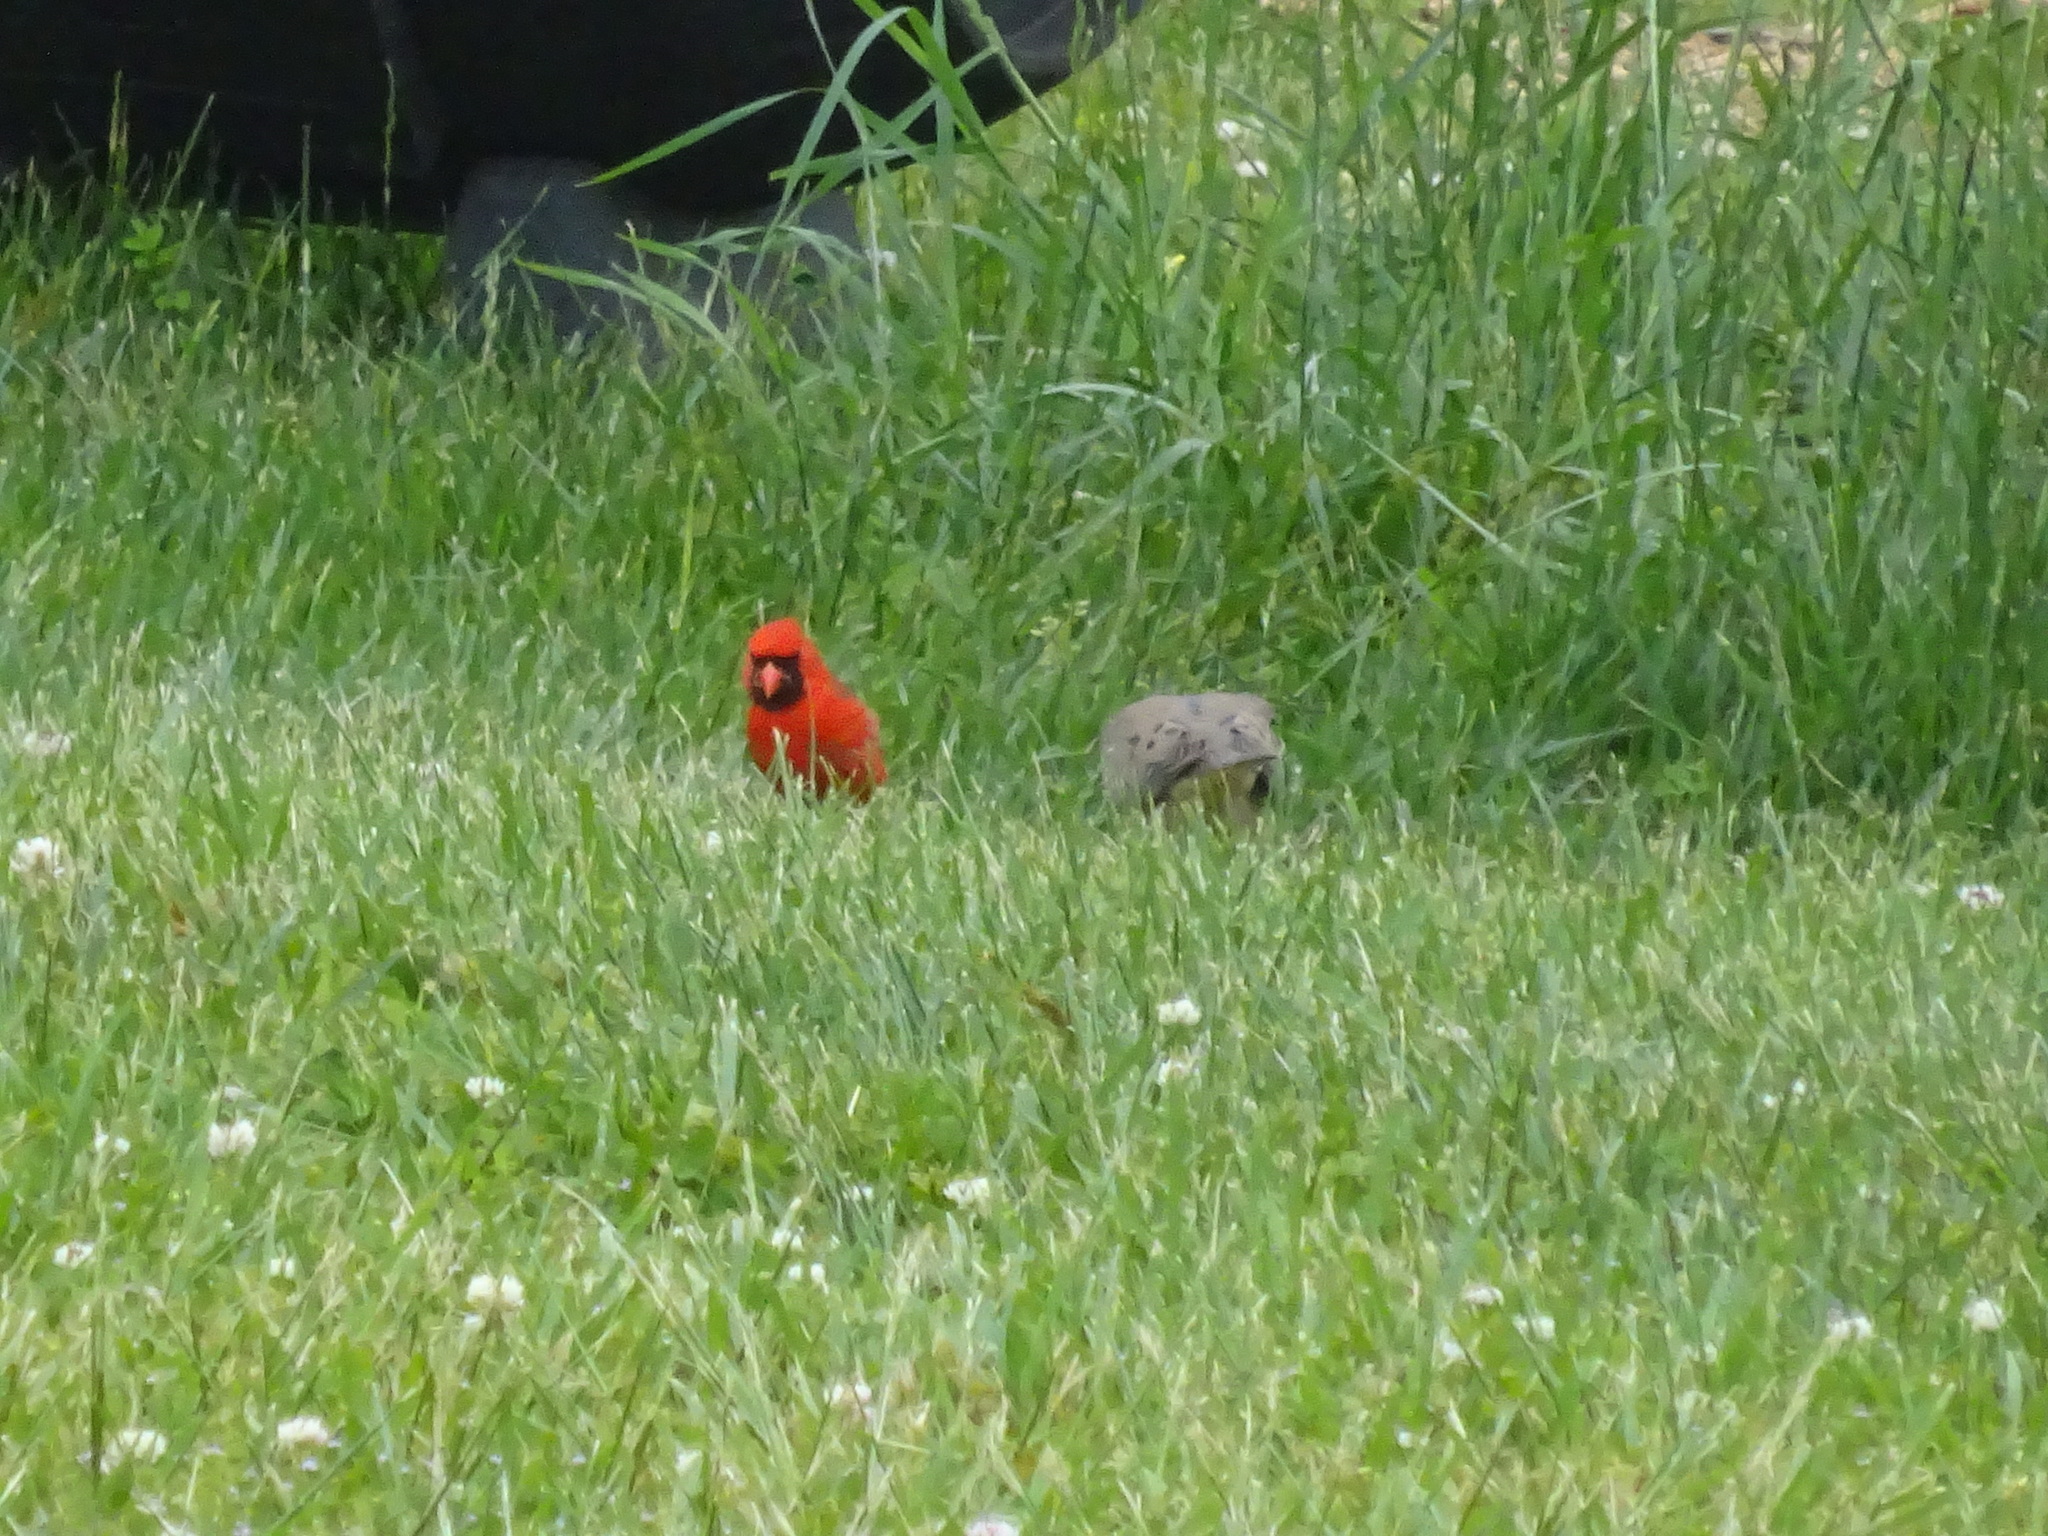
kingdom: Animalia
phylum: Chordata
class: Aves
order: Passeriformes
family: Cardinalidae
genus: Cardinalis
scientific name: Cardinalis cardinalis
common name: Northern cardinal
